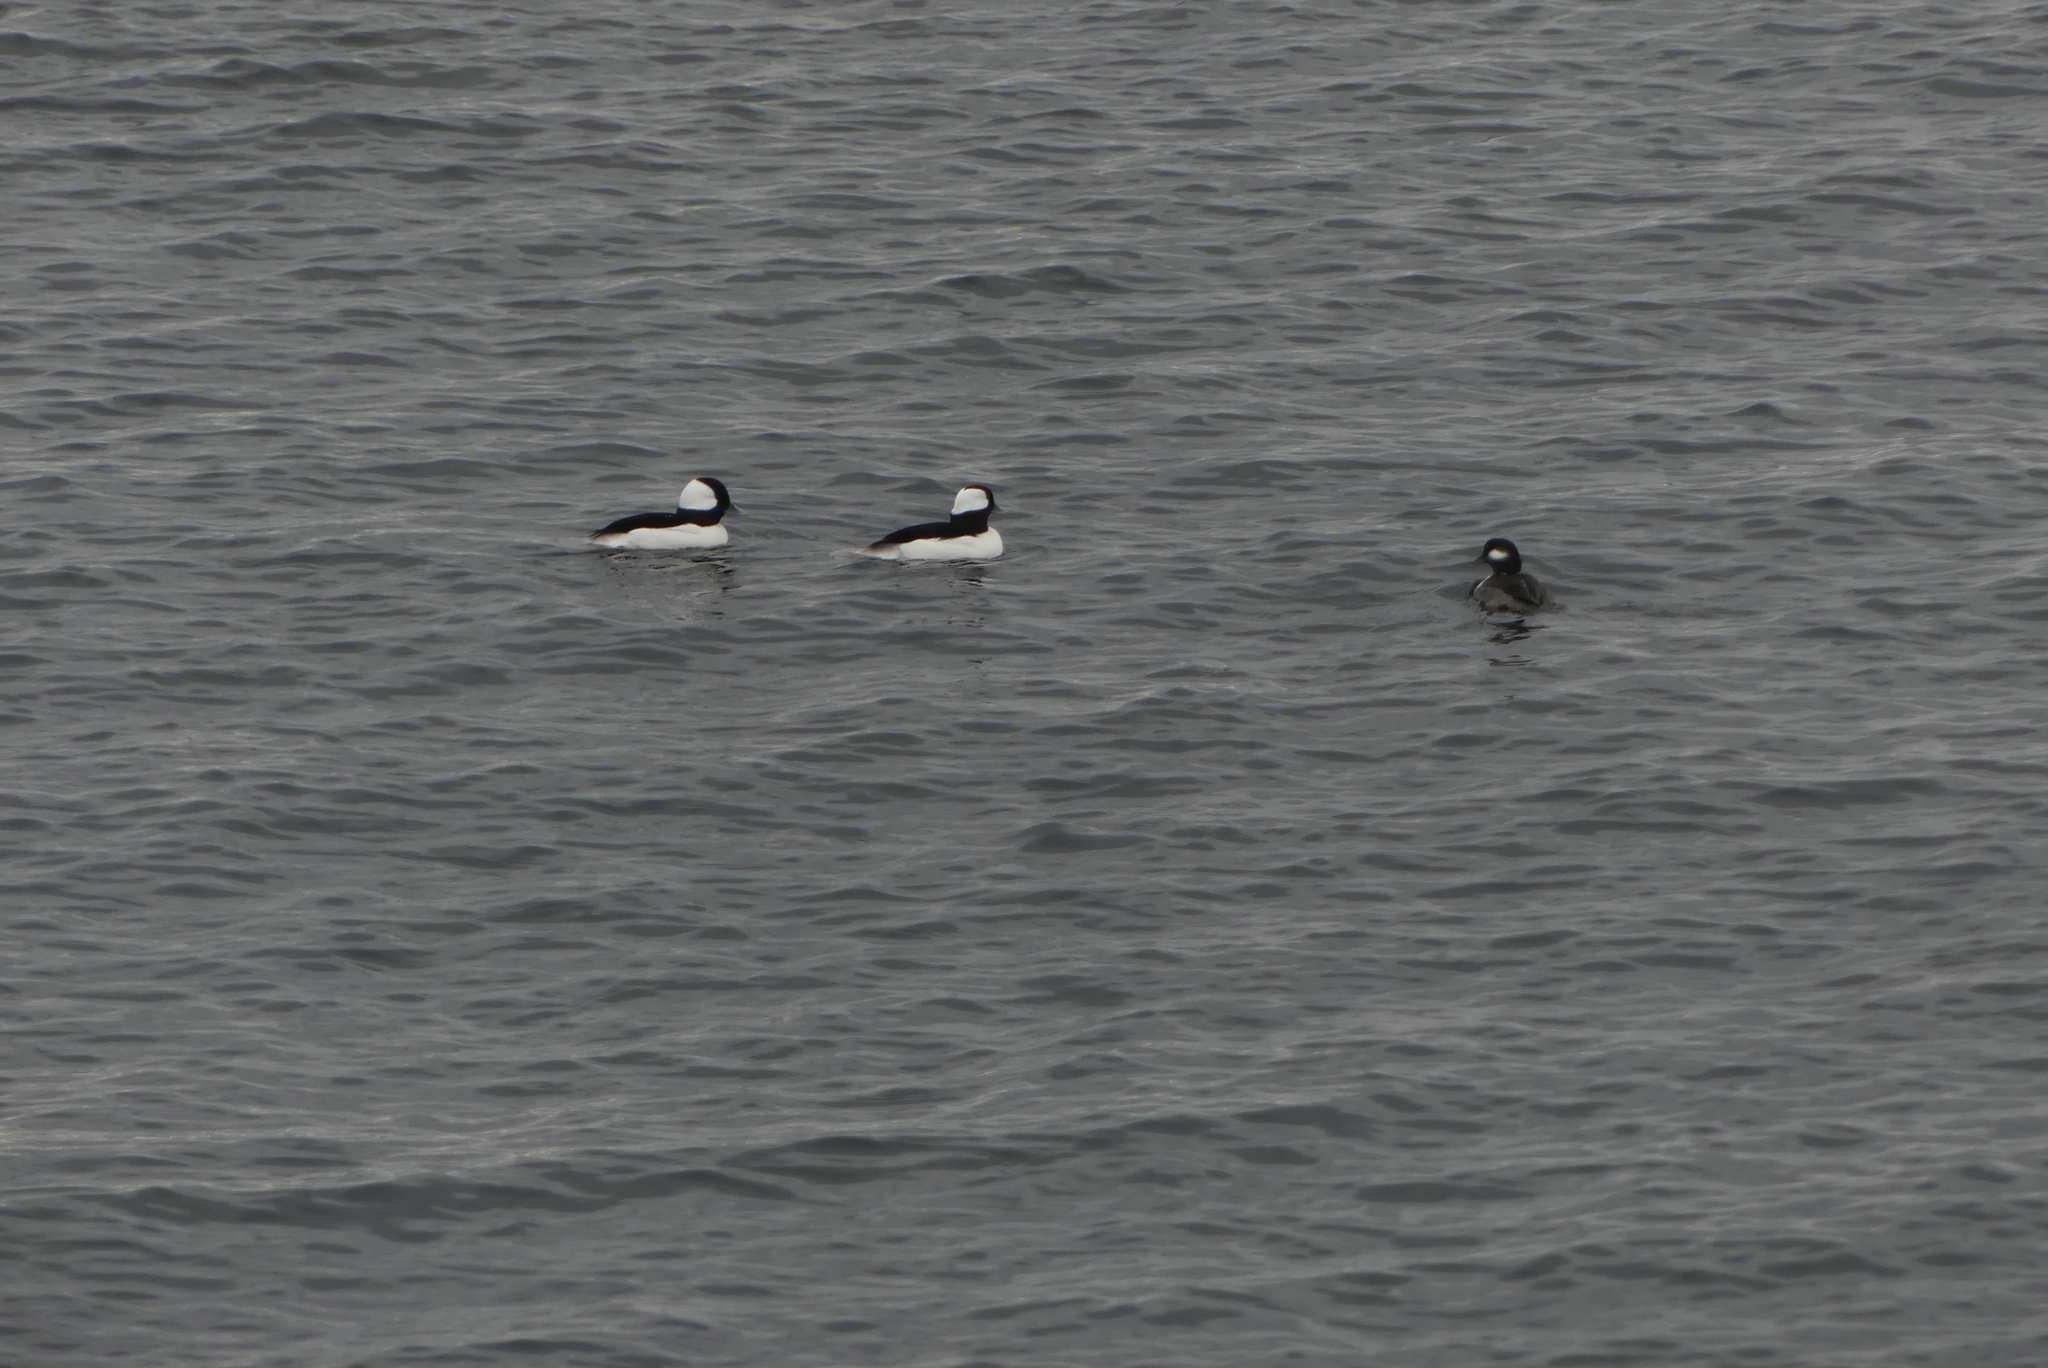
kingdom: Animalia
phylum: Chordata
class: Aves
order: Anseriformes
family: Anatidae
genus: Bucephala
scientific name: Bucephala albeola
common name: Bufflehead
